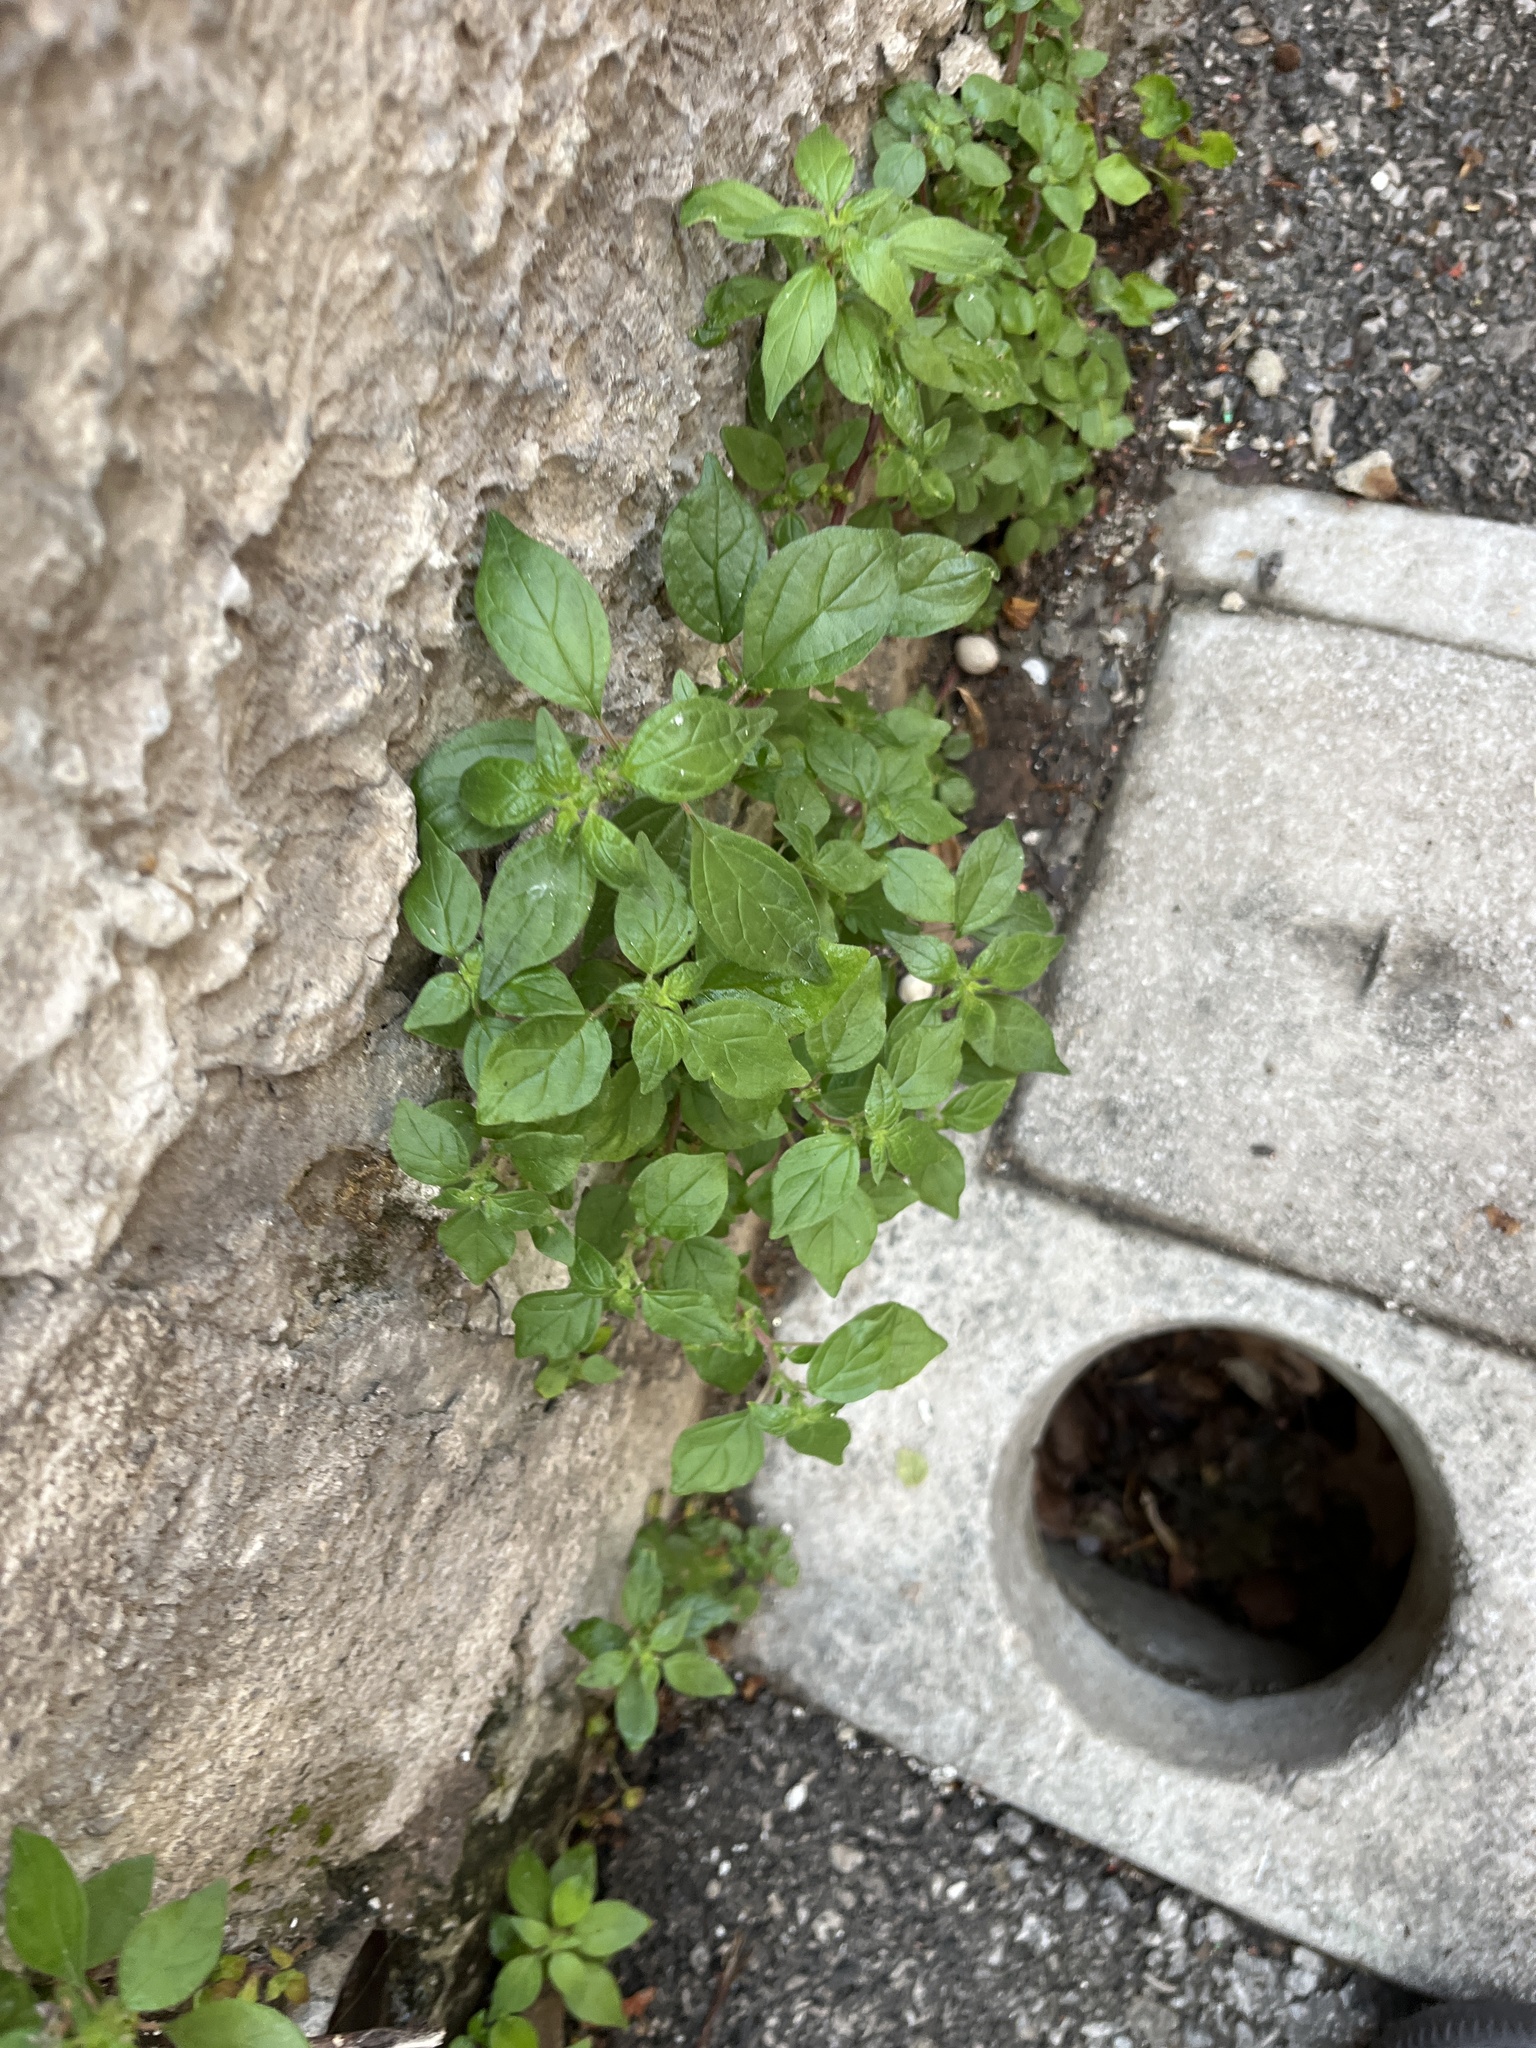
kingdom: Plantae
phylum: Tracheophyta
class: Magnoliopsida
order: Rosales
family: Urticaceae
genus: Parietaria
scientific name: Parietaria judaica
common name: Pellitory-of-the-wall
